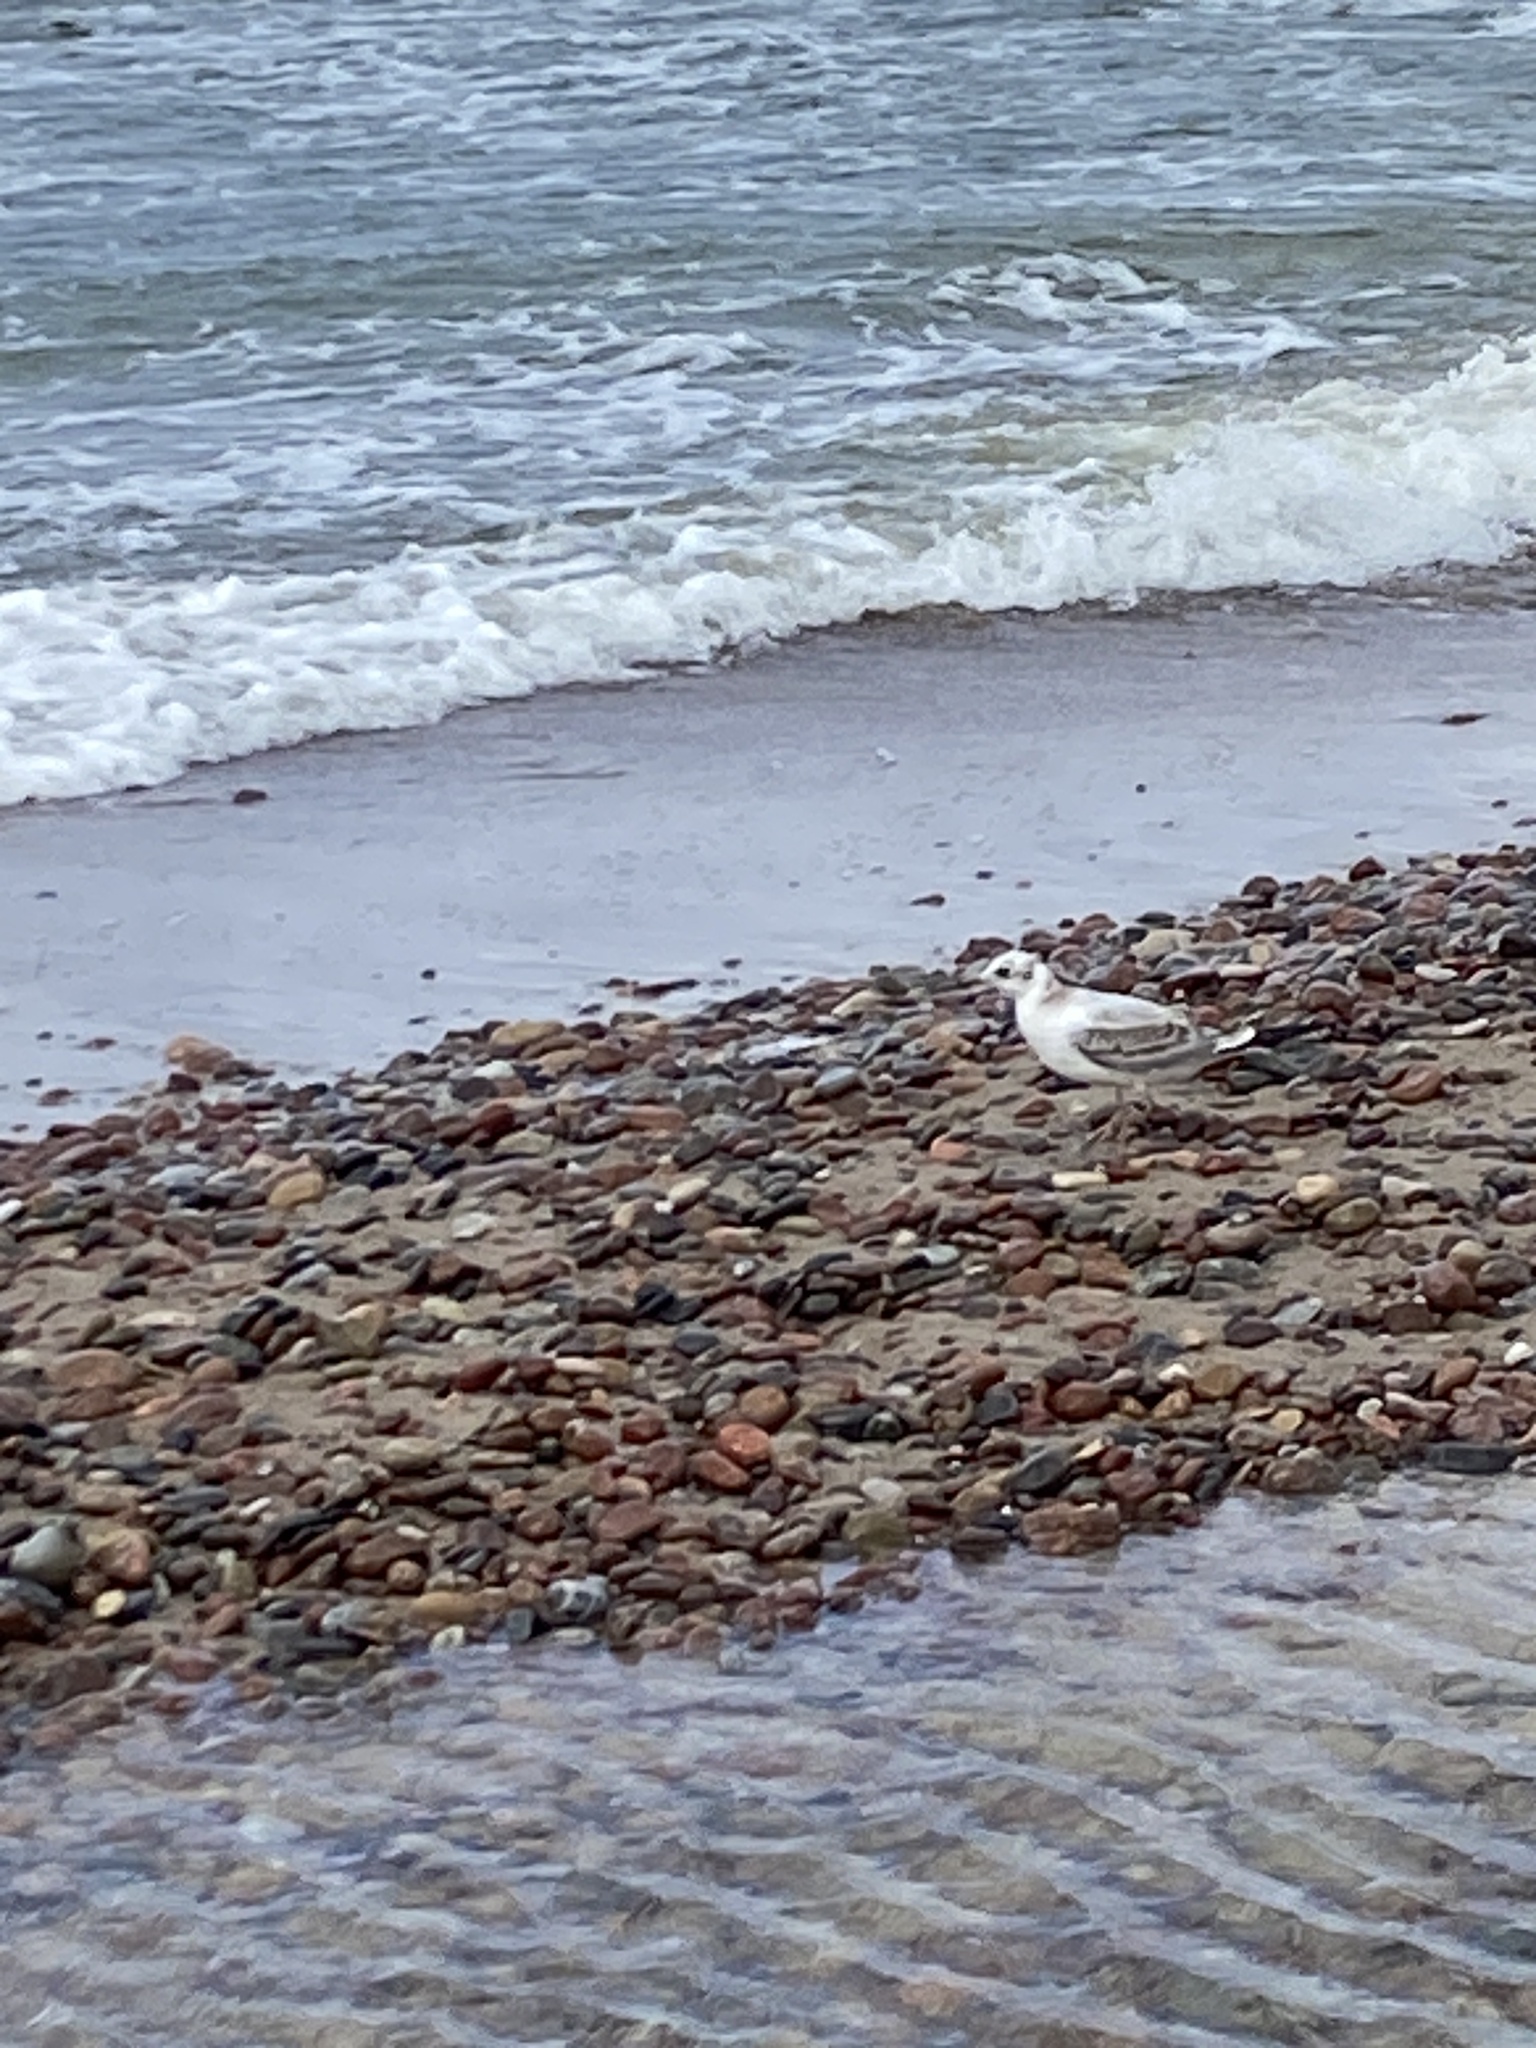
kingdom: Animalia
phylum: Chordata
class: Aves
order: Charadriiformes
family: Laridae
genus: Chroicocephalus
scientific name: Chroicocephalus ridibundus
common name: Black-headed gull
